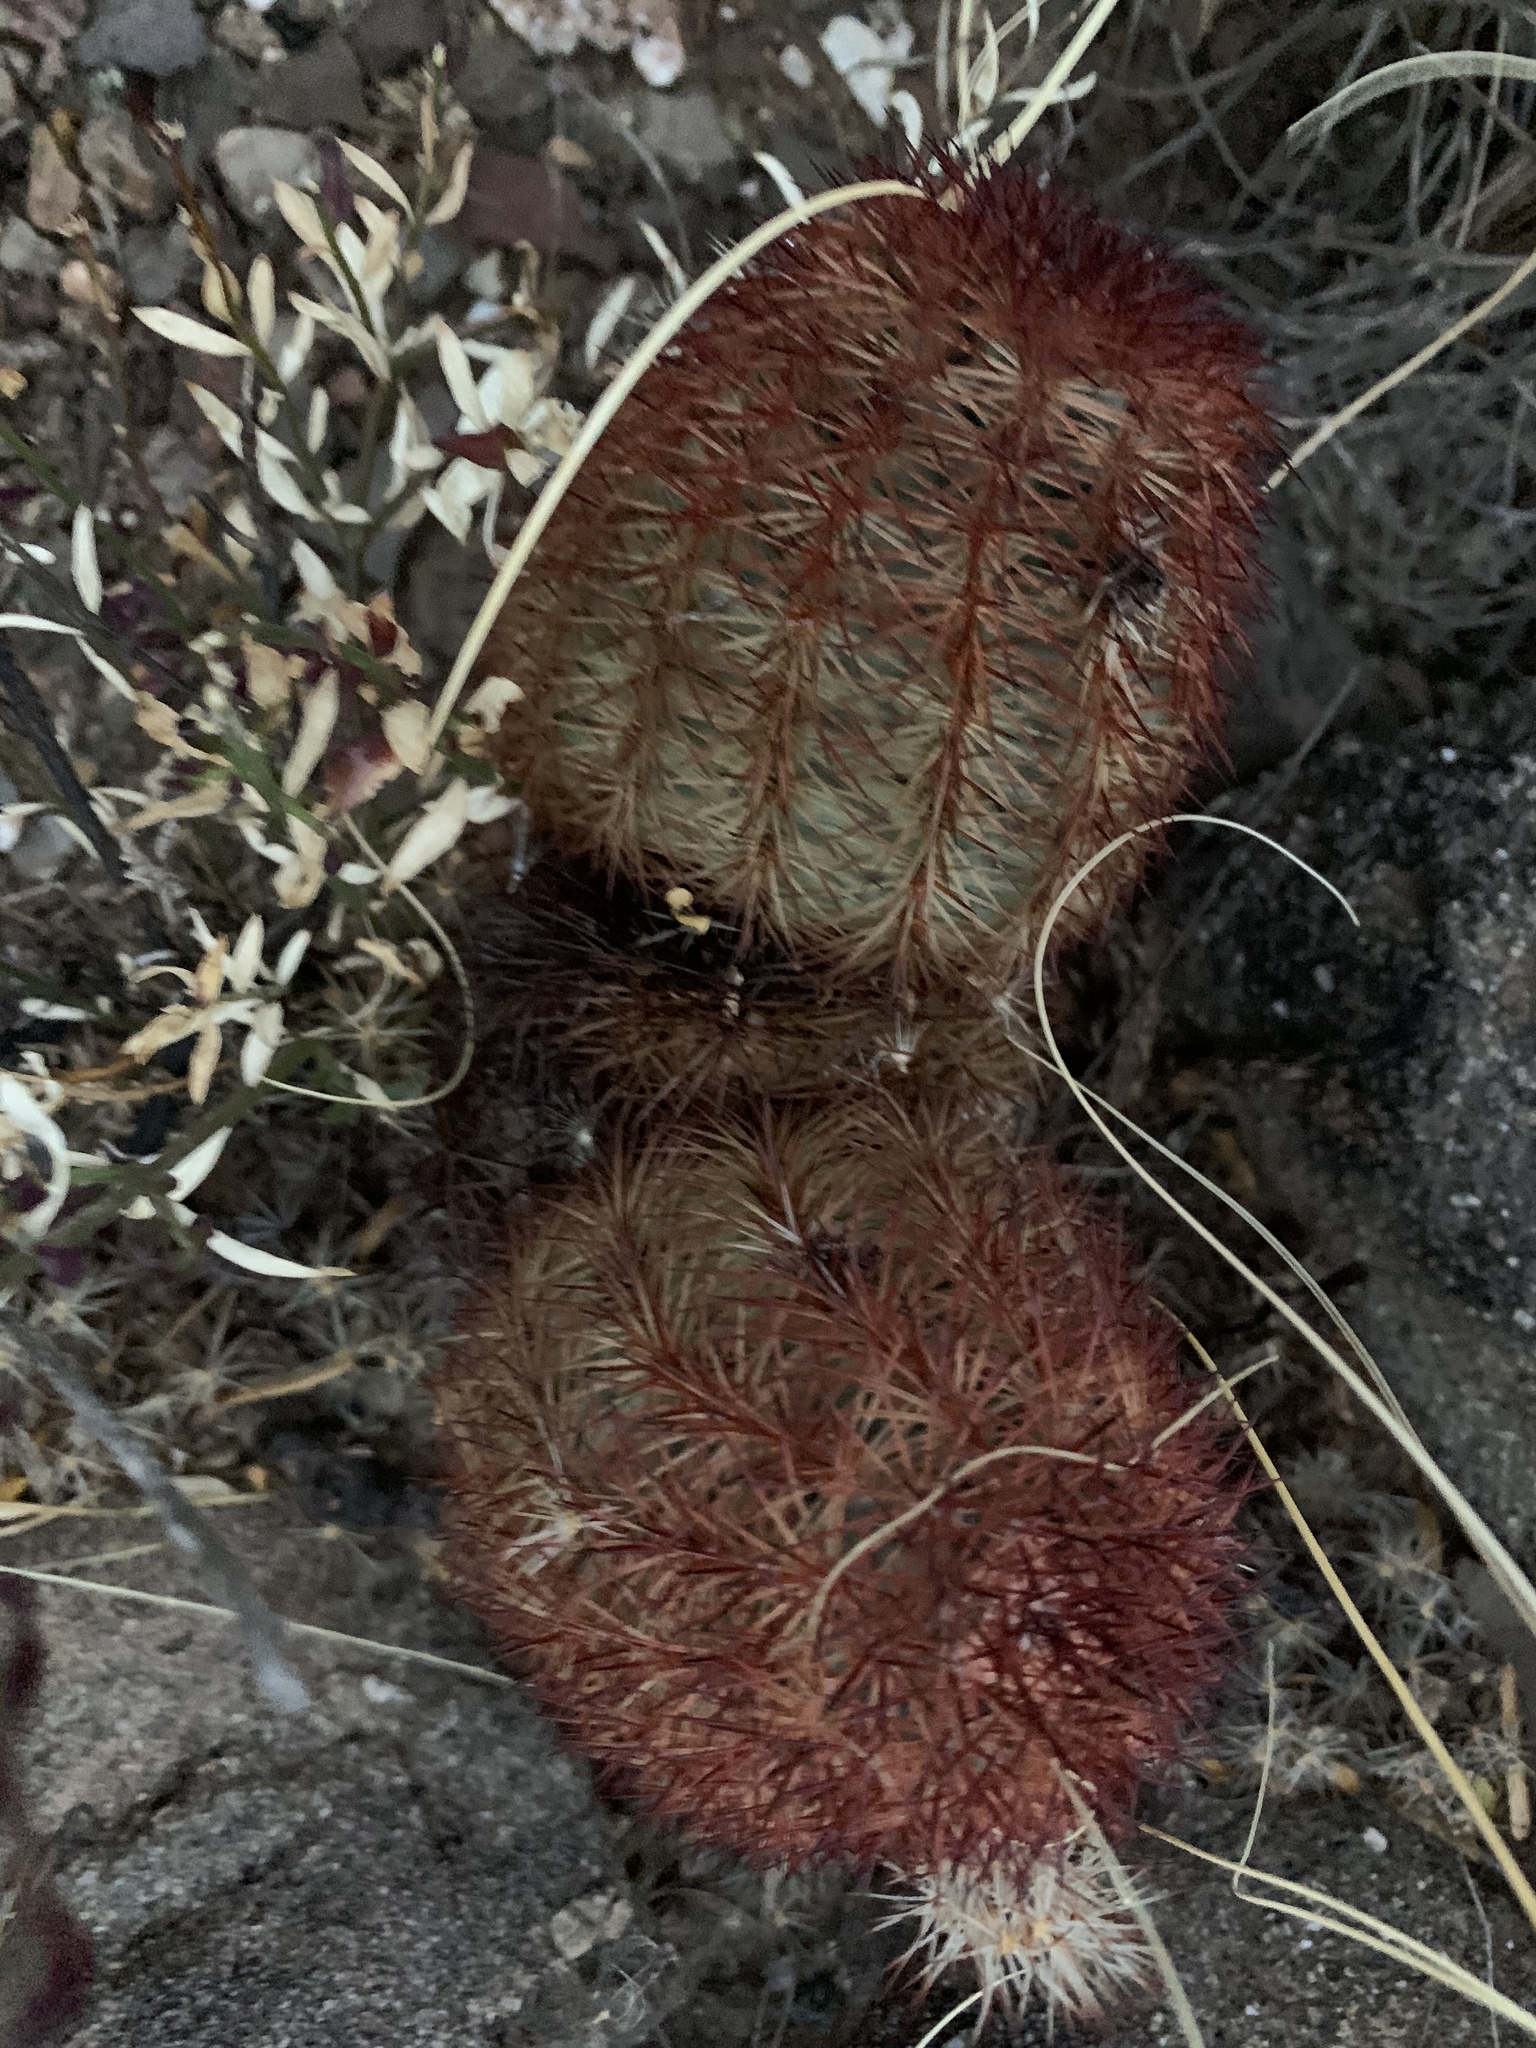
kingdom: Plantae
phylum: Tracheophyta
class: Magnoliopsida
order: Caryophyllales
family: Cactaceae
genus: Echinocereus
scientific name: Echinocereus dasyacanthus
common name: Spiny hedgehog cactus
